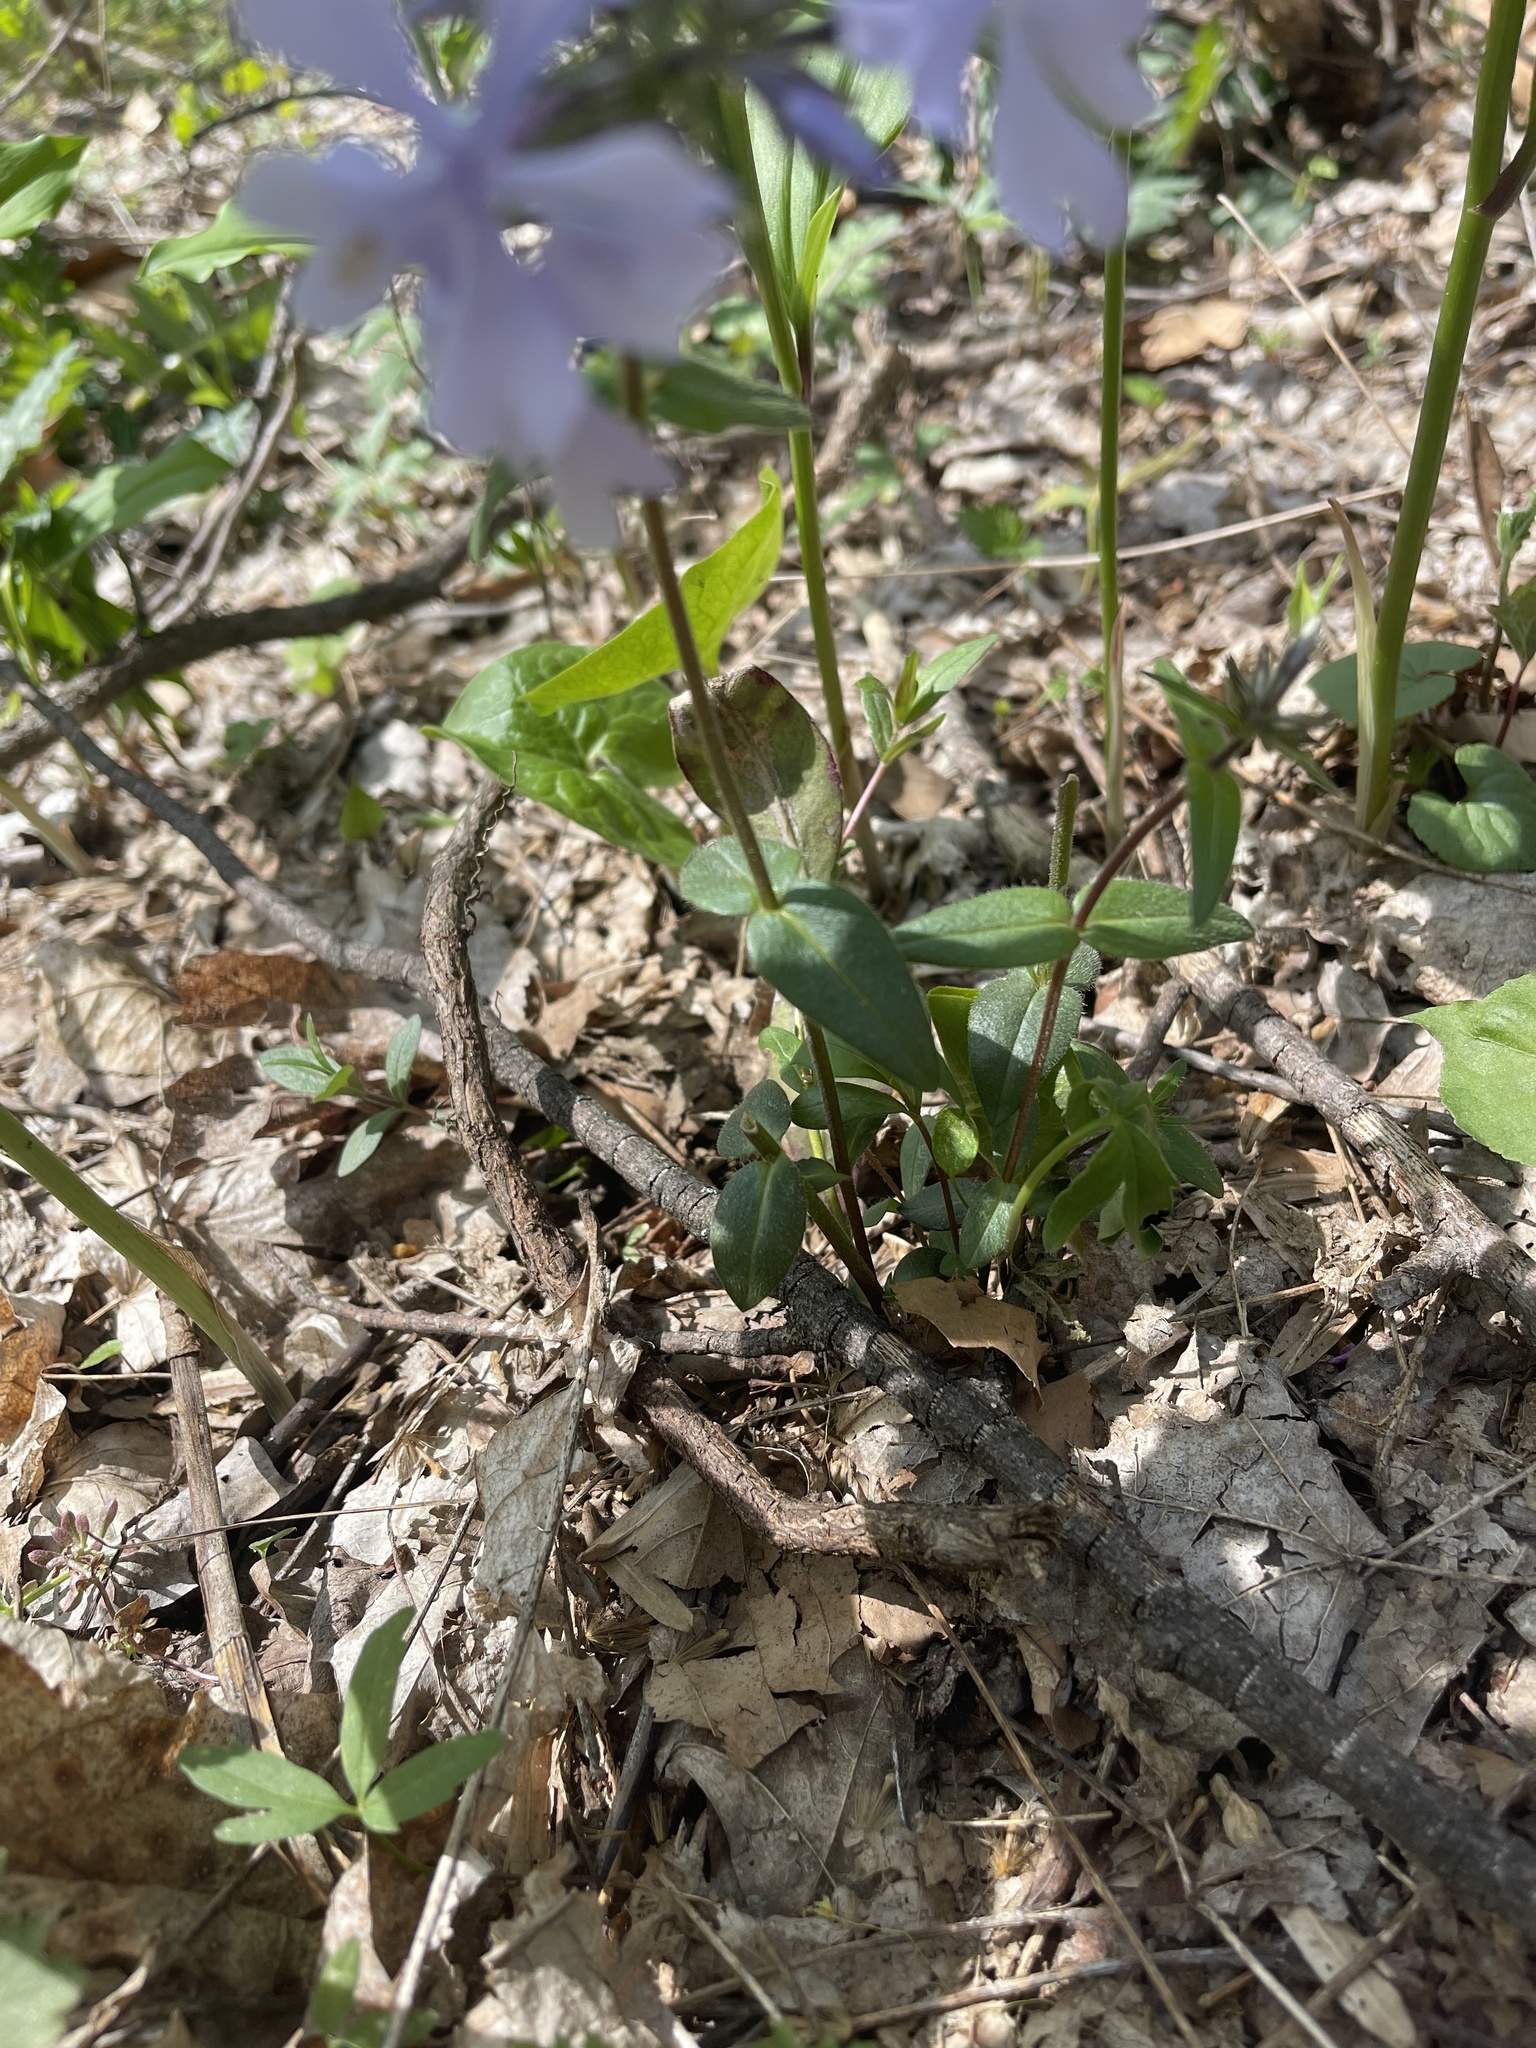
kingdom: Plantae
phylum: Tracheophyta
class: Magnoliopsida
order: Ericales
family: Polemoniaceae
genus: Phlox
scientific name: Phlox divaricata
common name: Blue phlox
